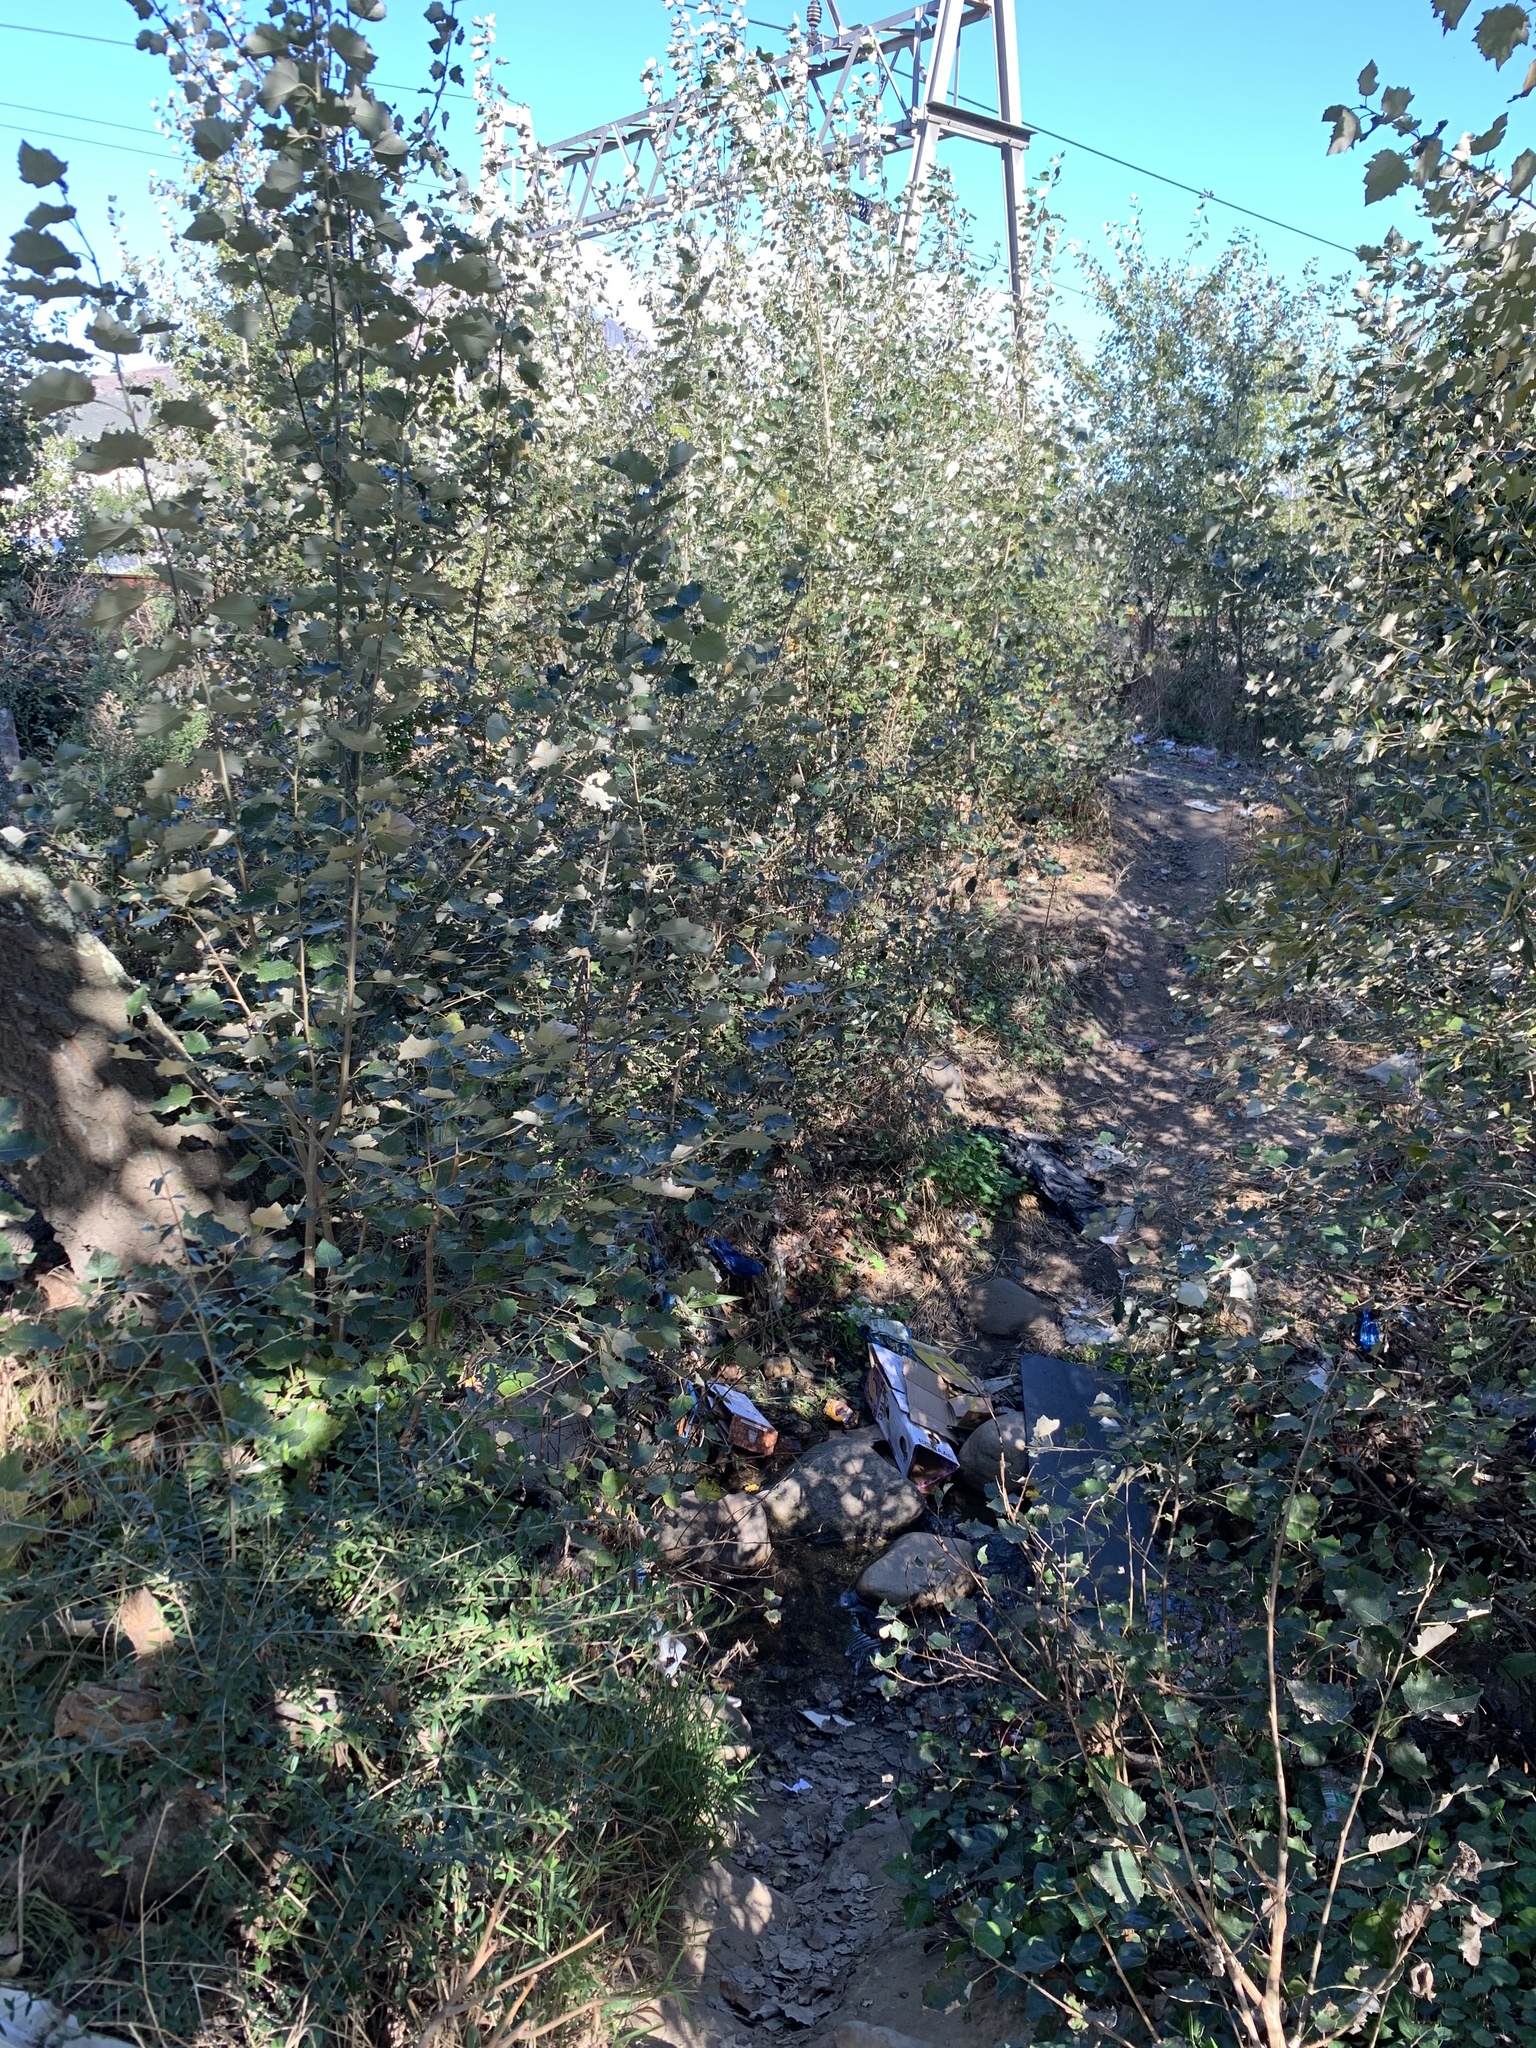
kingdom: Plantae
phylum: Tracheophyta
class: Magnoliopsida
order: Malpighiales
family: Salicaceae
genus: Populus
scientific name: Populus canescens
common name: Gray poplar
